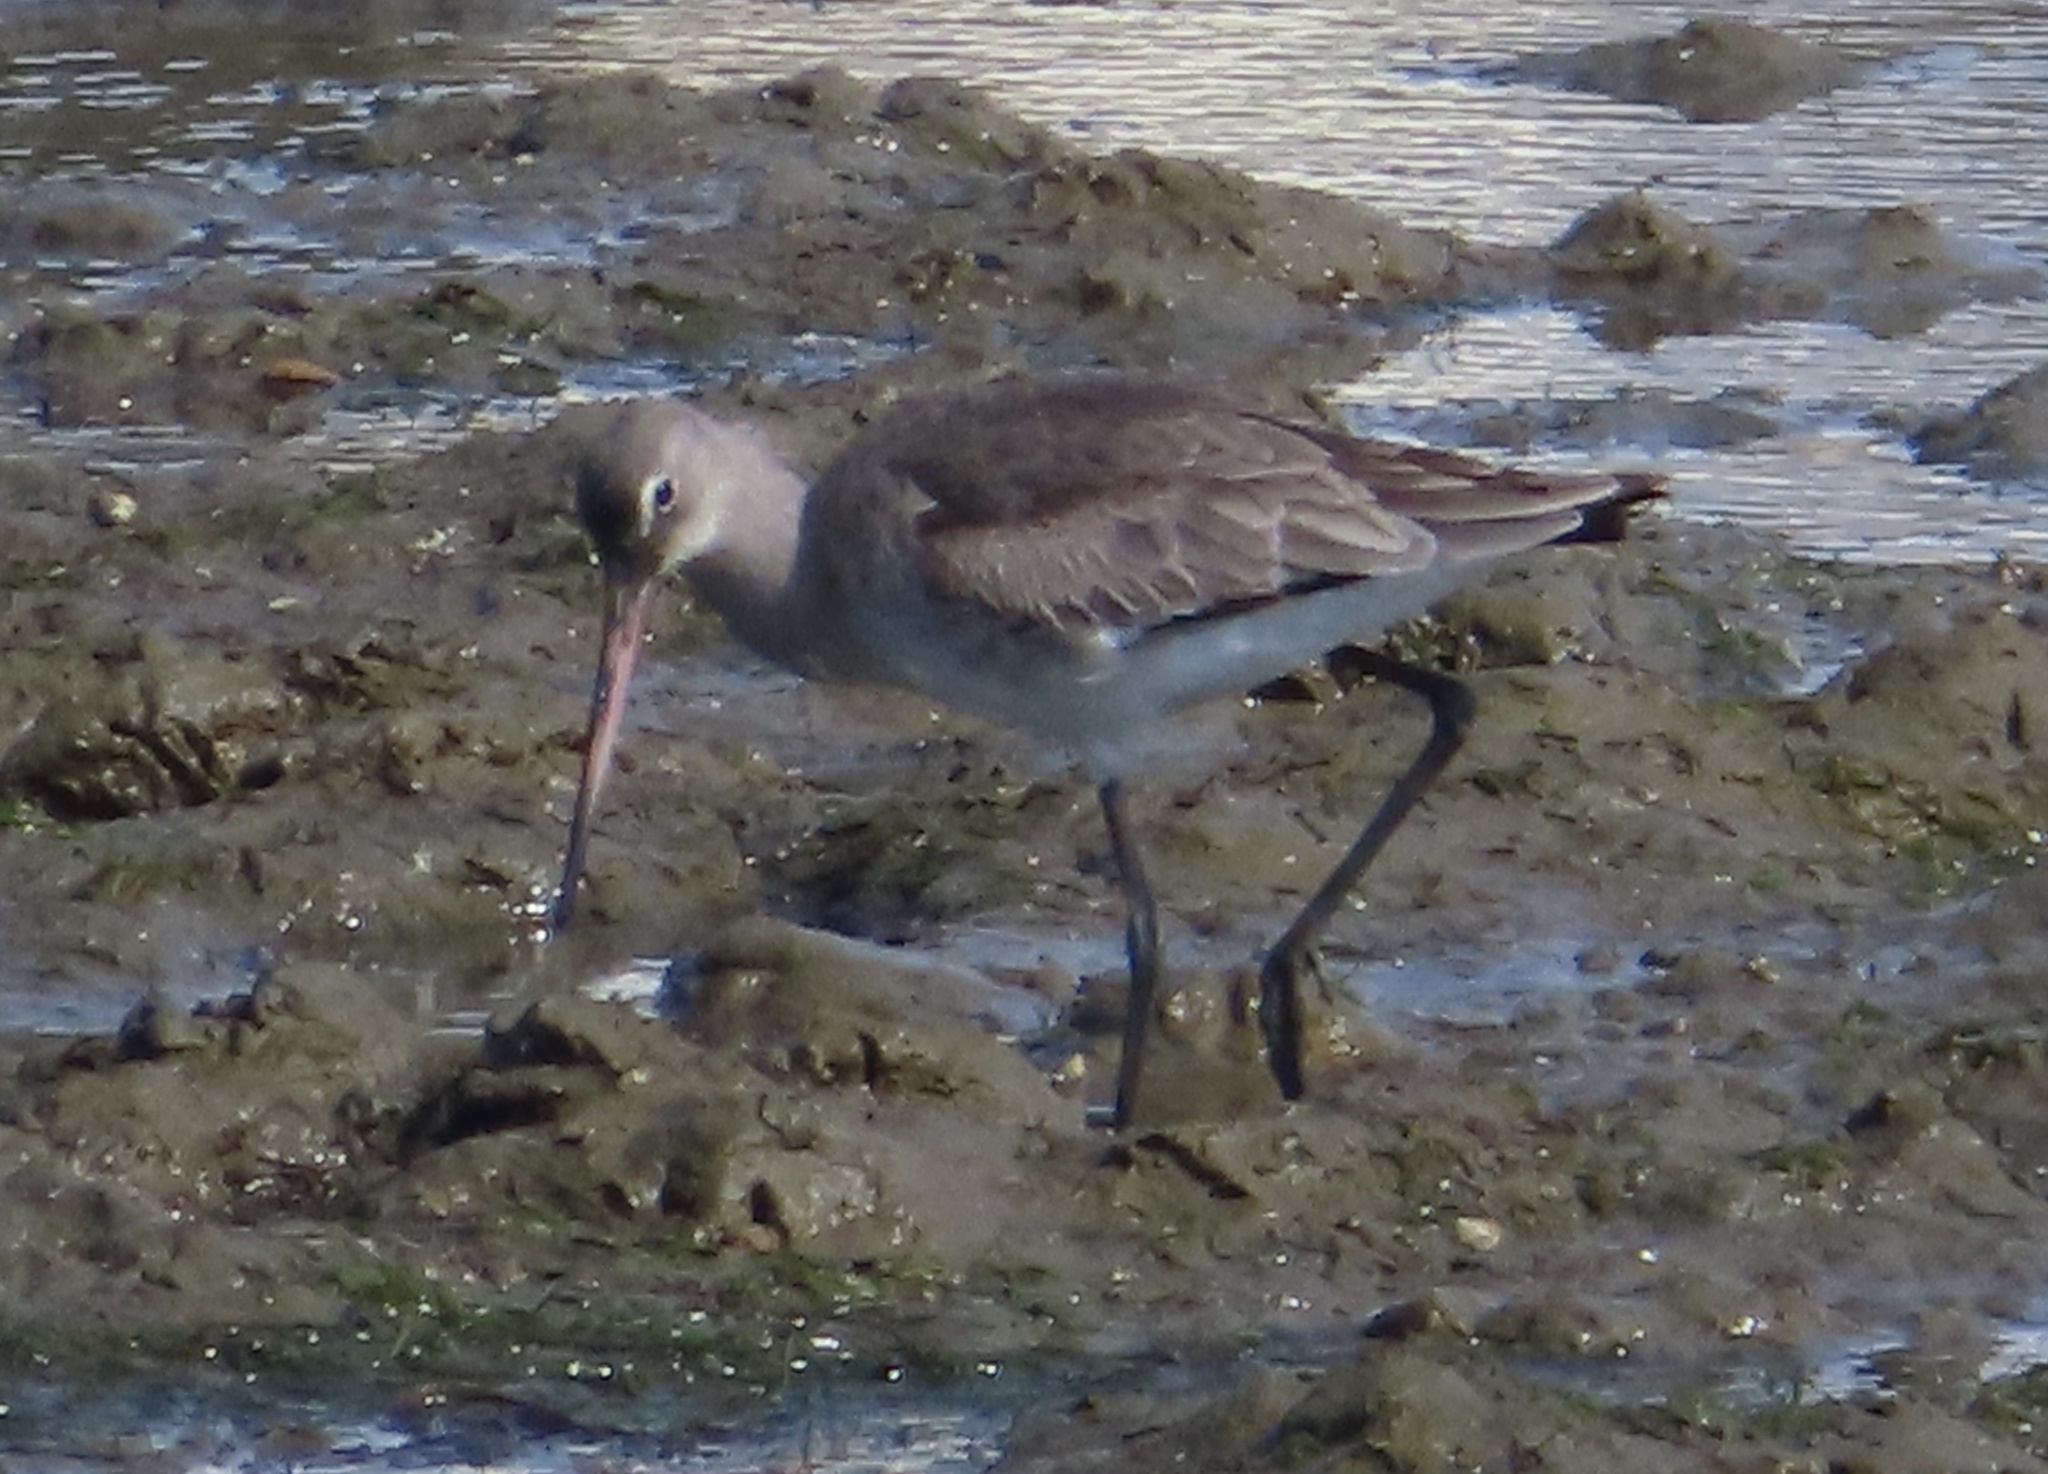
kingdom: Animalia
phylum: Chordata
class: Aves
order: Charadriiformes
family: Scolopacidae
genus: Limosa
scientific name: Limosa limosa
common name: Black-tailed godwit
